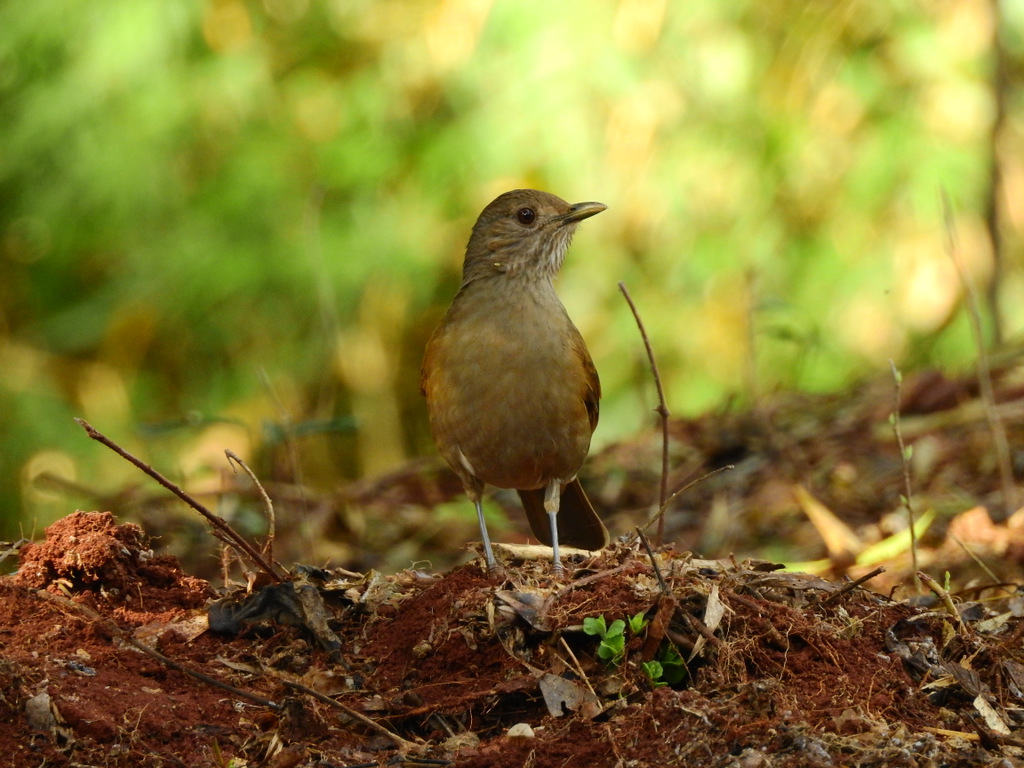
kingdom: Animalia
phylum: Chordata
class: Aves
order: Passeriformes
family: Turdidae
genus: Turdus
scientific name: Turdus leucomelas
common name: Pale-breasted thrush
